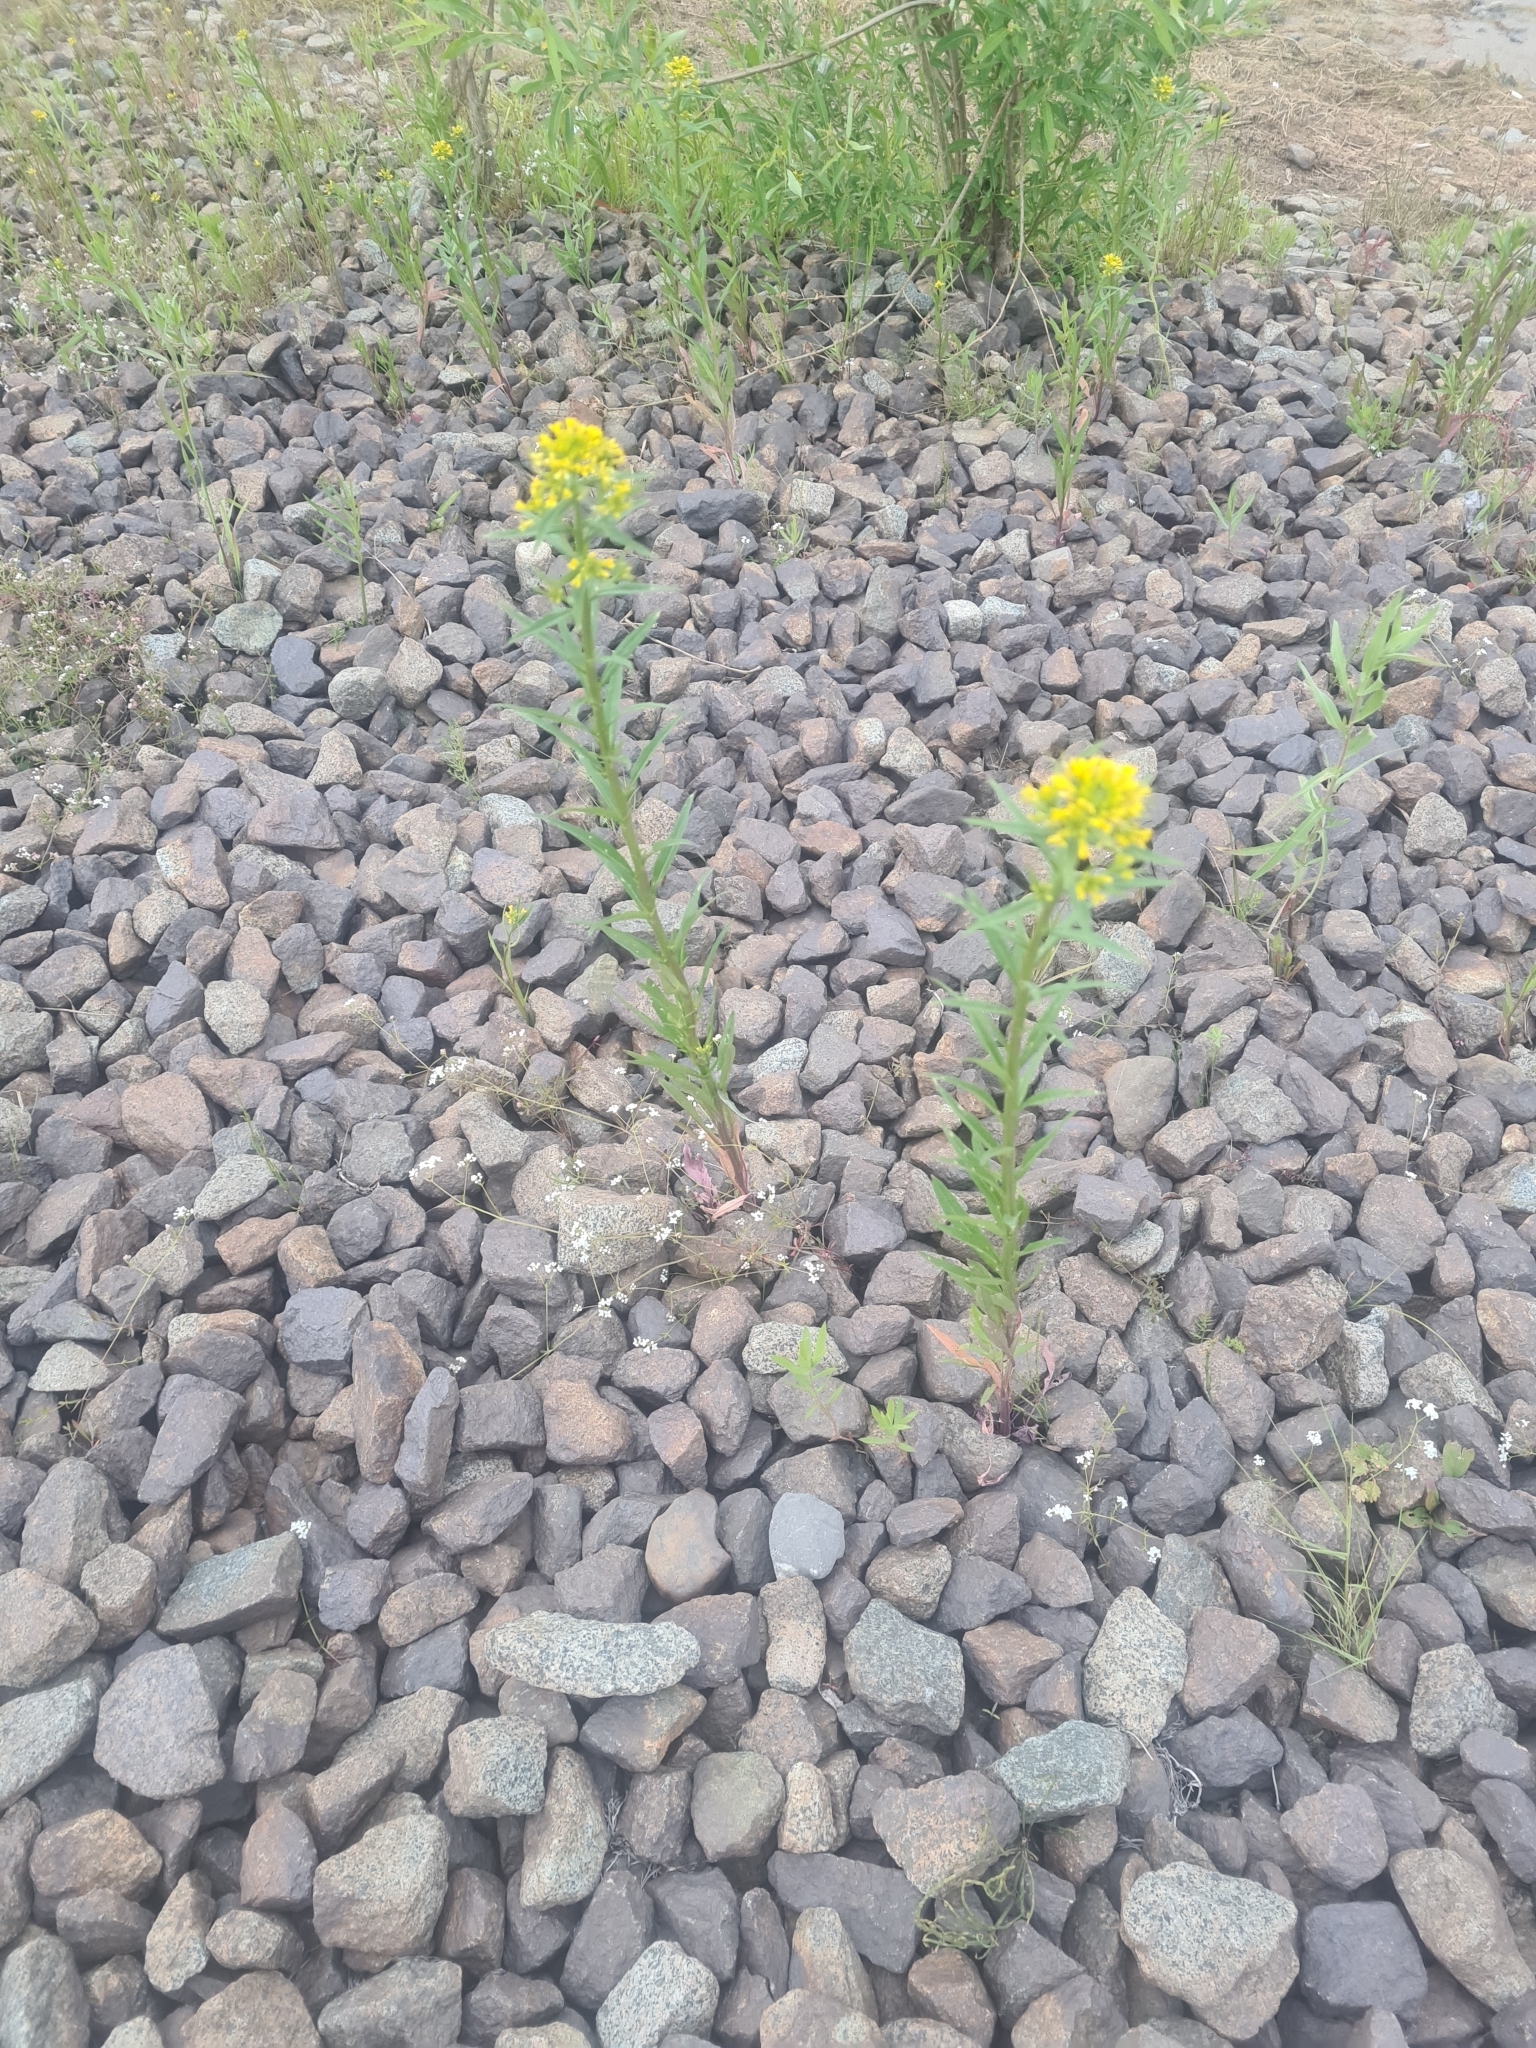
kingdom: Plantae
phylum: Tracheophyta
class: Magnoliopsida
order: Brassicales
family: Brassicaceae
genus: Erysimum
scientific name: Erysimum cheiranthoides
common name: Treacle mustard
